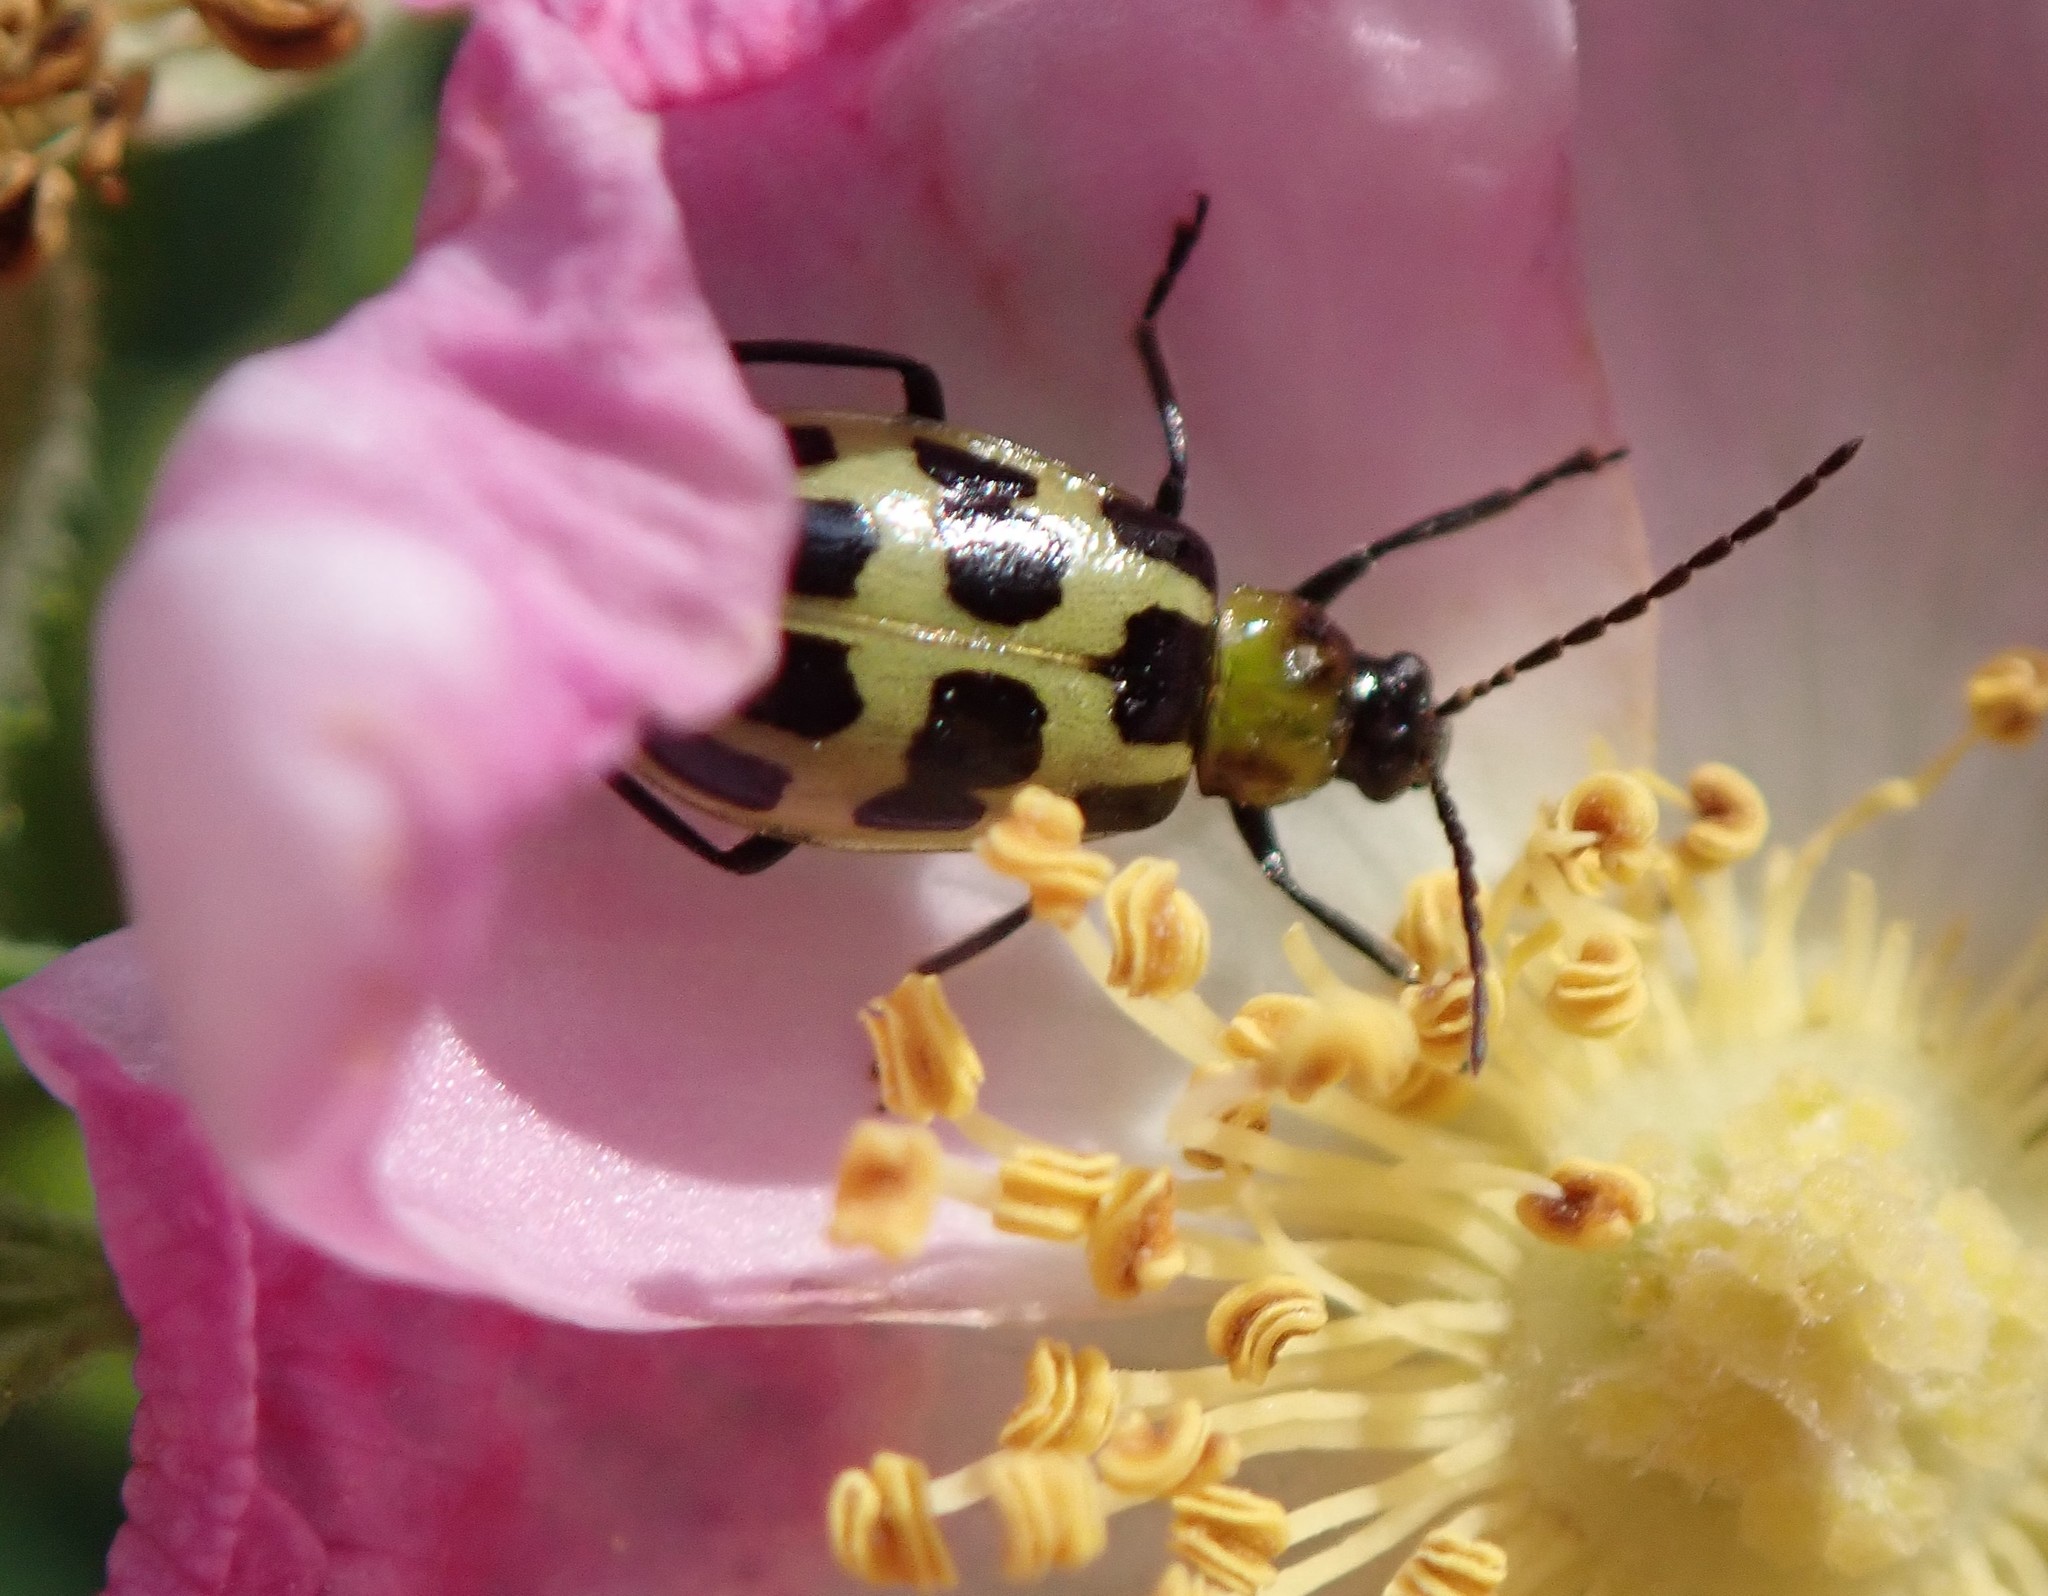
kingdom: Animalia
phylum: Arthropoda
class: Insecta
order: Coleoptera
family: Chrysomelidae
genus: Diabrotica
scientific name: Diabrotica undecimpunctata
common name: Spotted cucumber beetle
